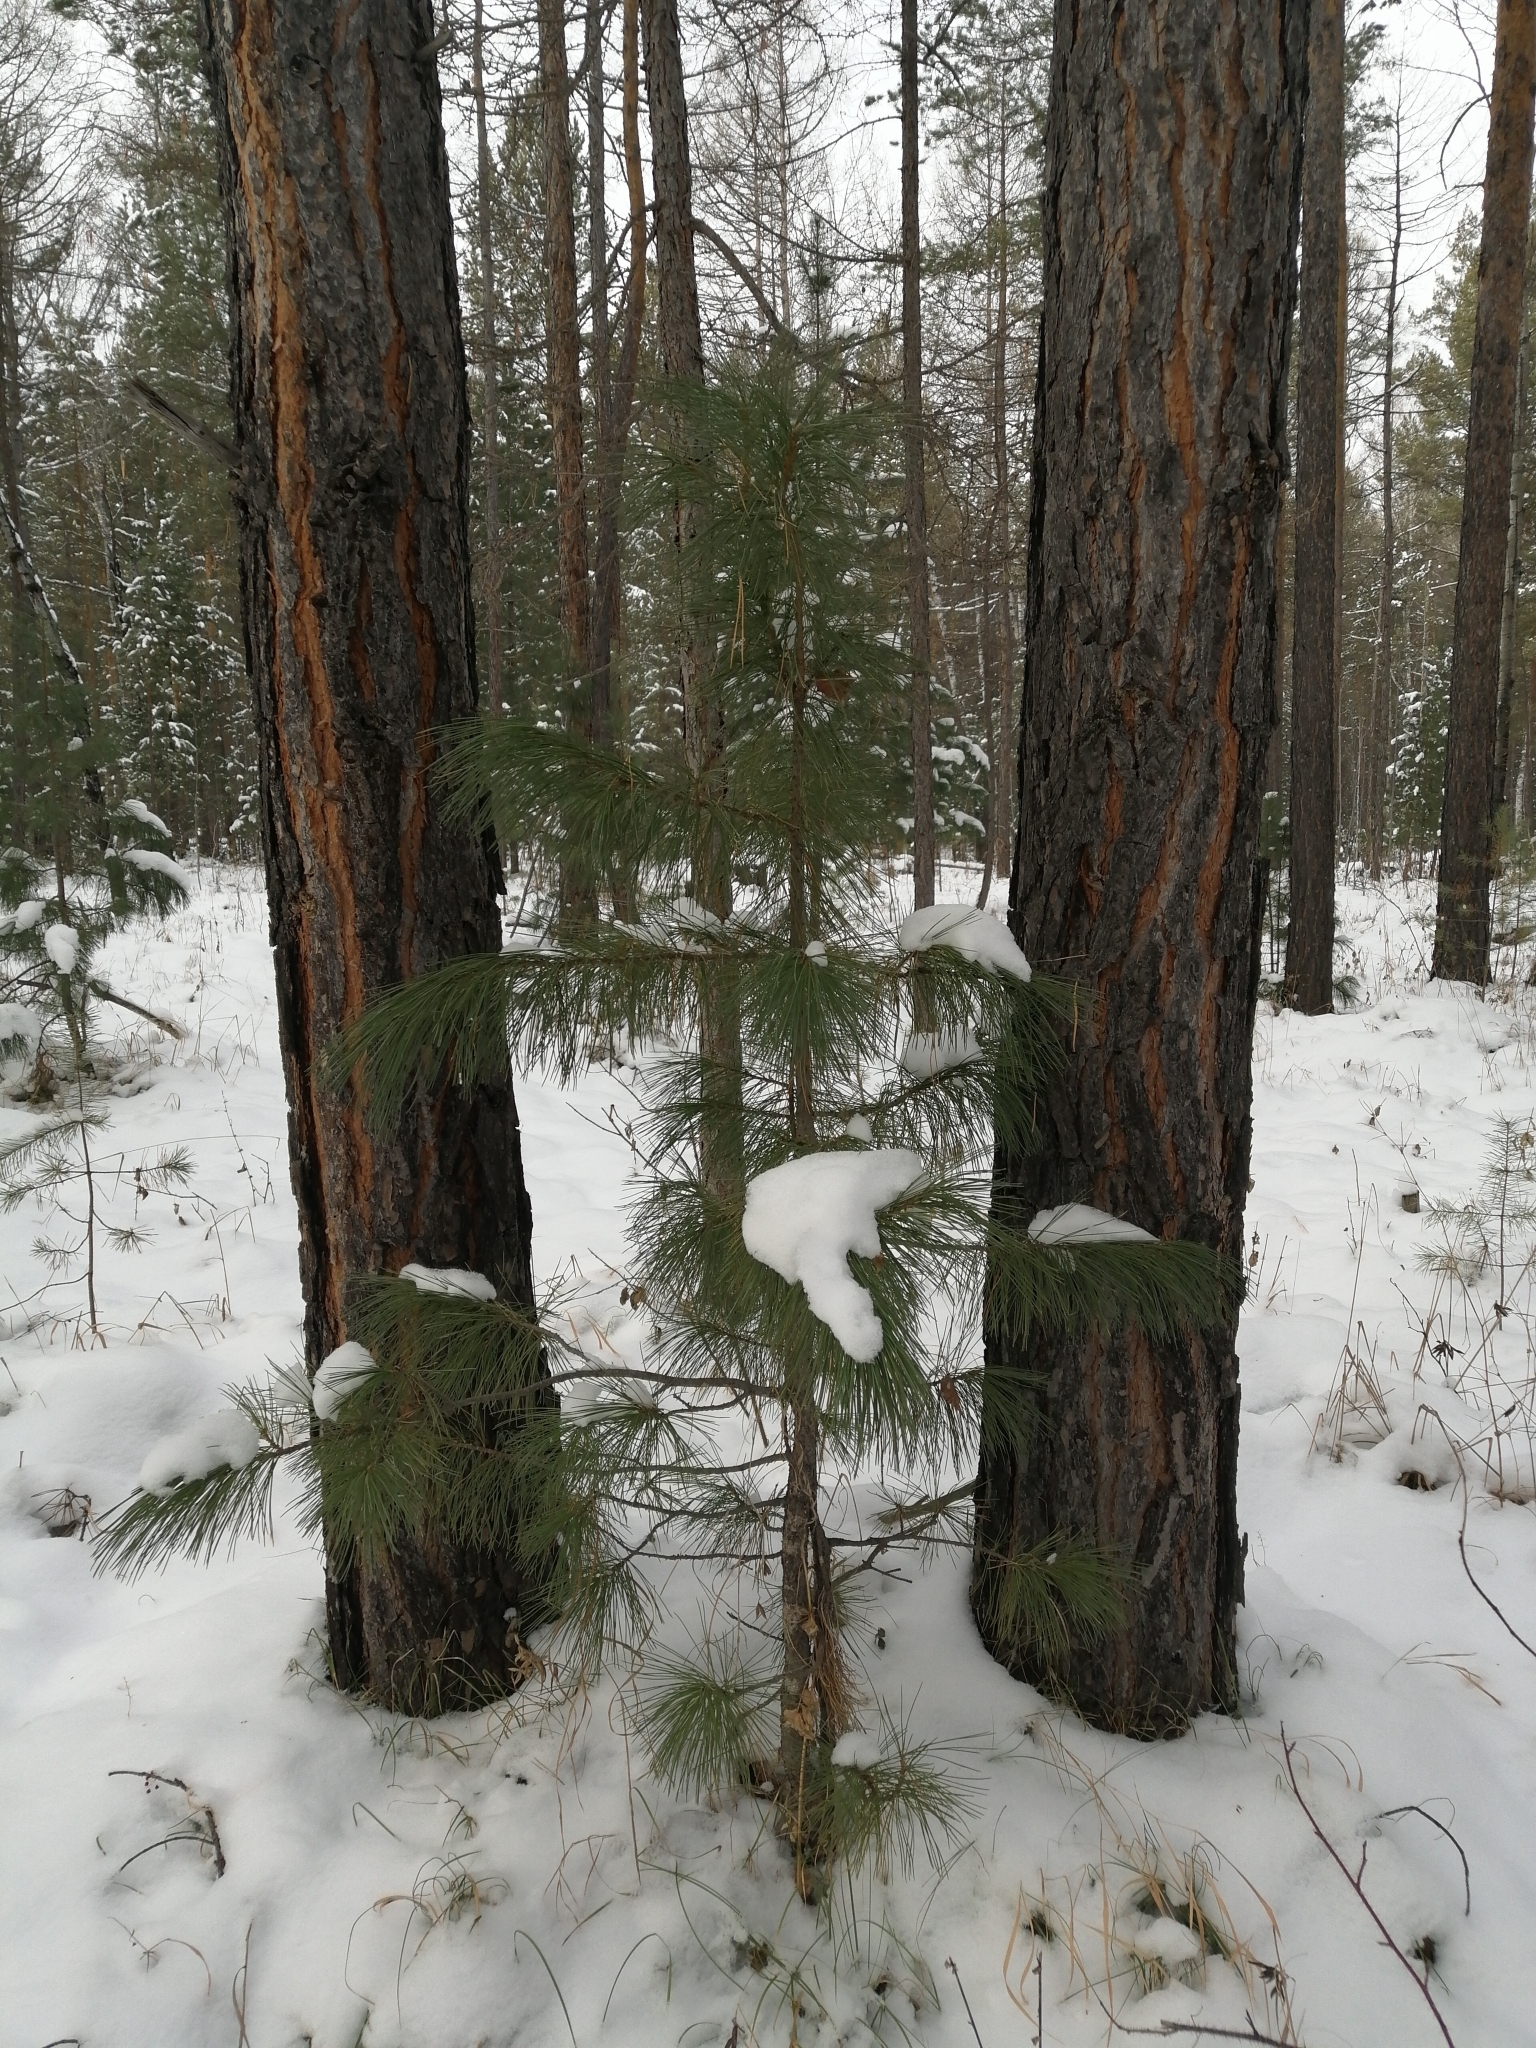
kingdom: Plantae
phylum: Tracheophyta
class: Pinopsida
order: Pinales
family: Pinaceae
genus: Pinus
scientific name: Pinus sibirica
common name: Siberian pine
